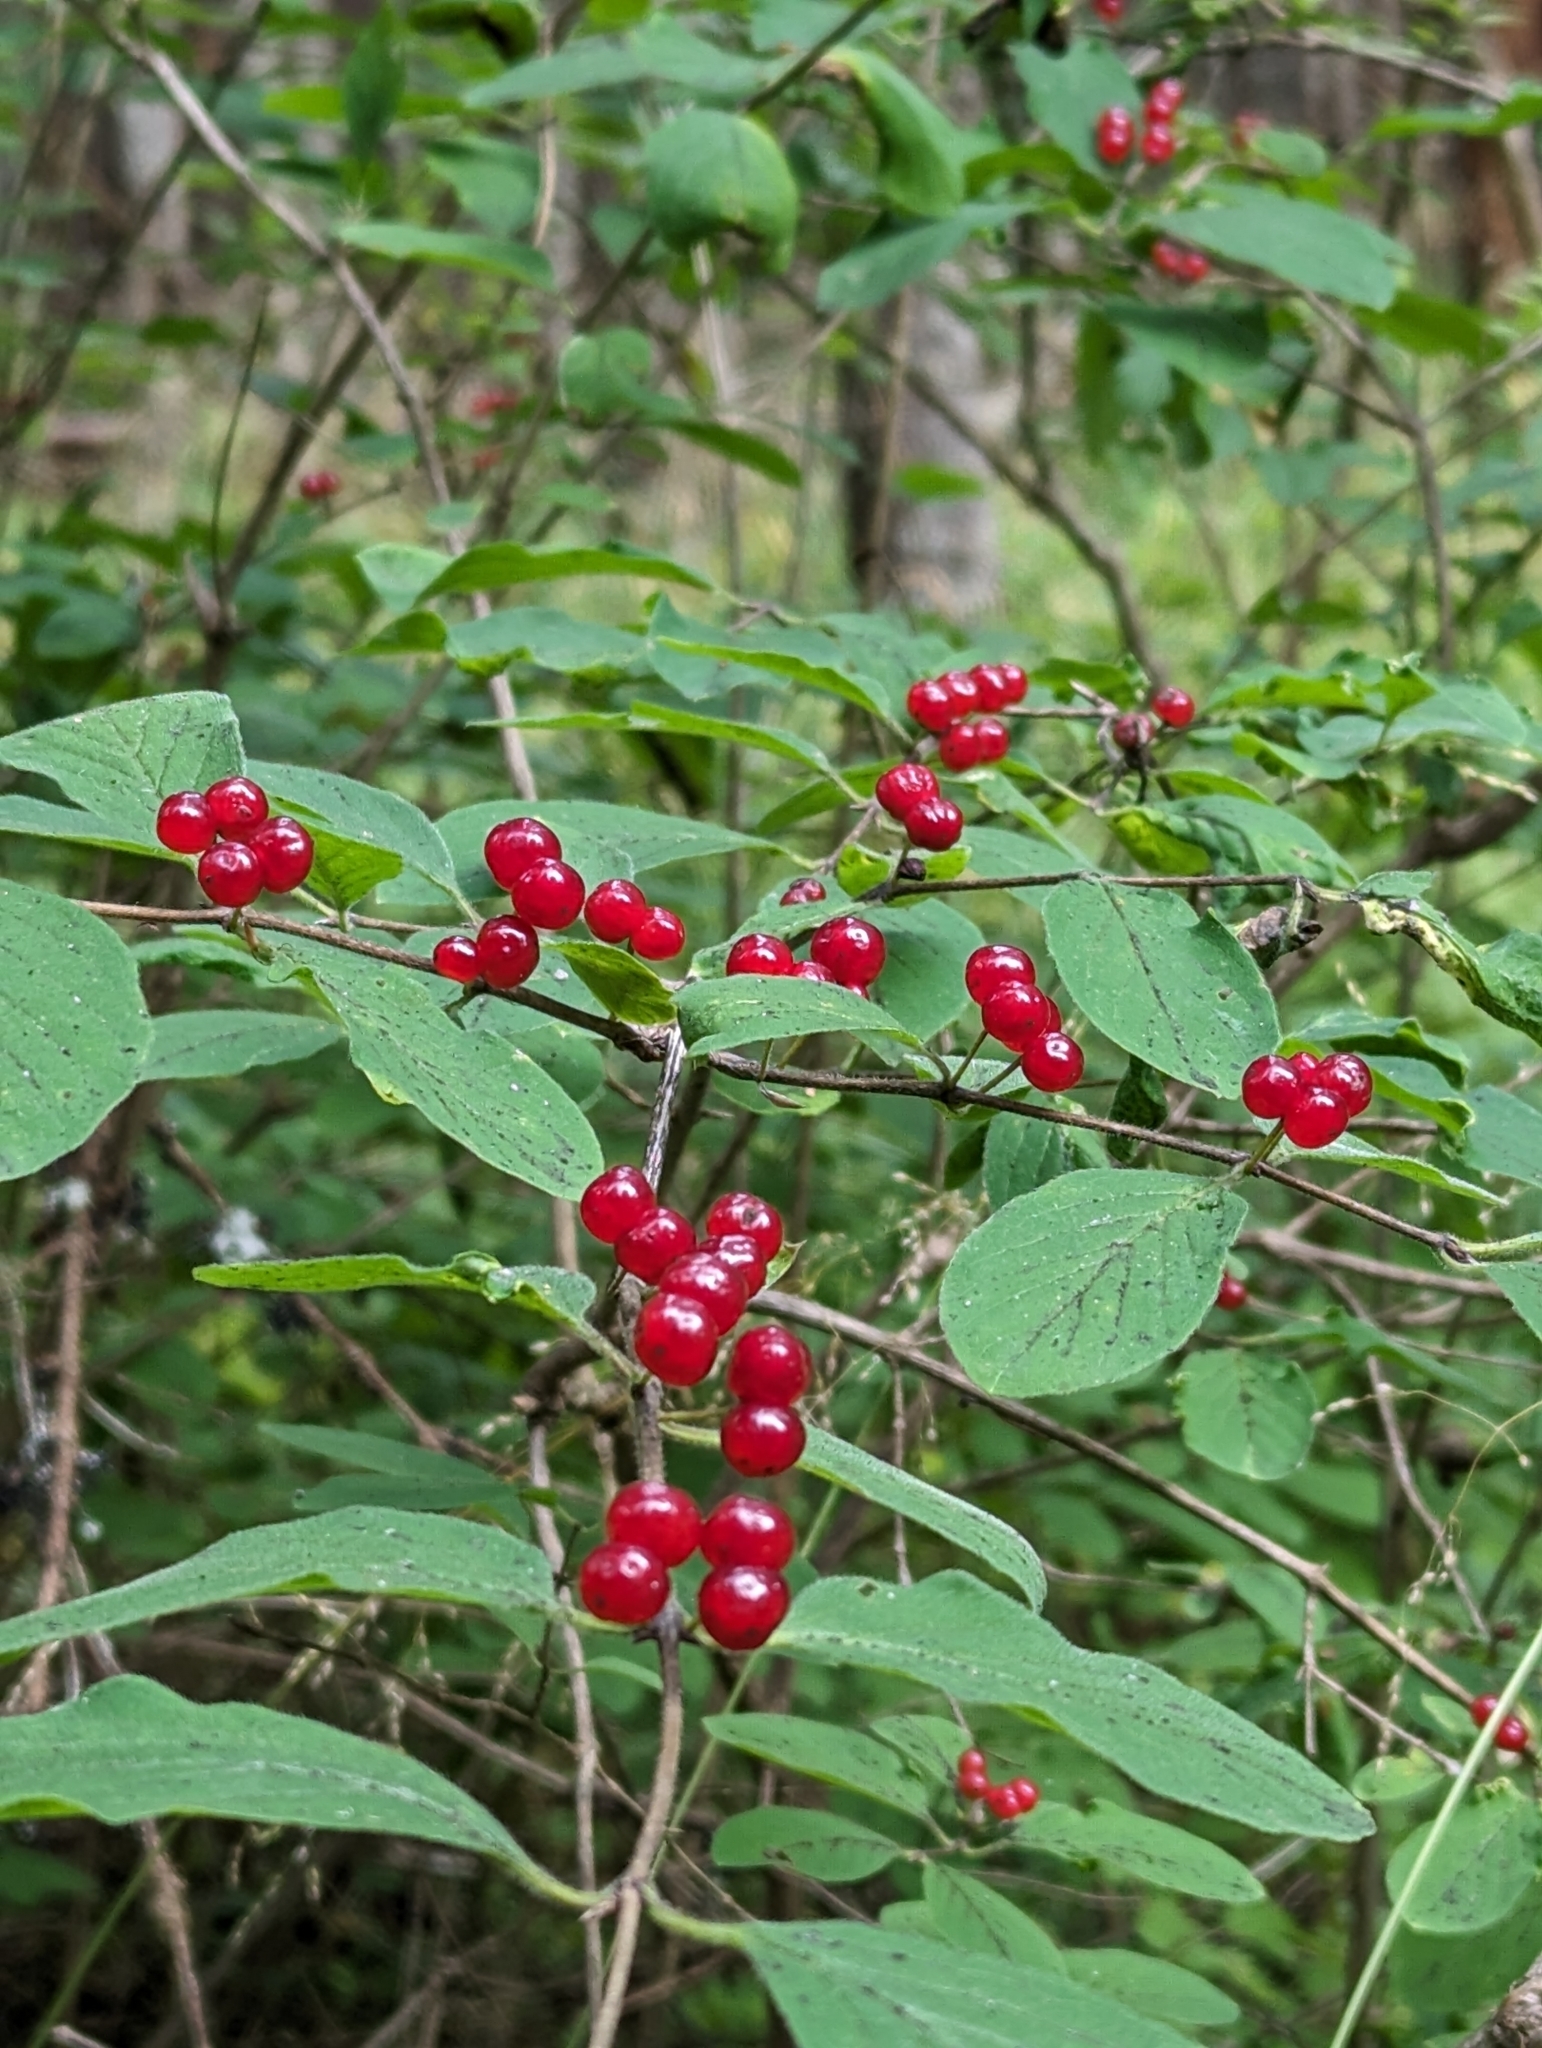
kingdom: Plantae
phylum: Tracheophyta
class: Magnoliopsida
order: Dipsacales
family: Caprifoliaceae
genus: Lonicera
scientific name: Lonicera xylosteum
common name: Fly honeysuckle
